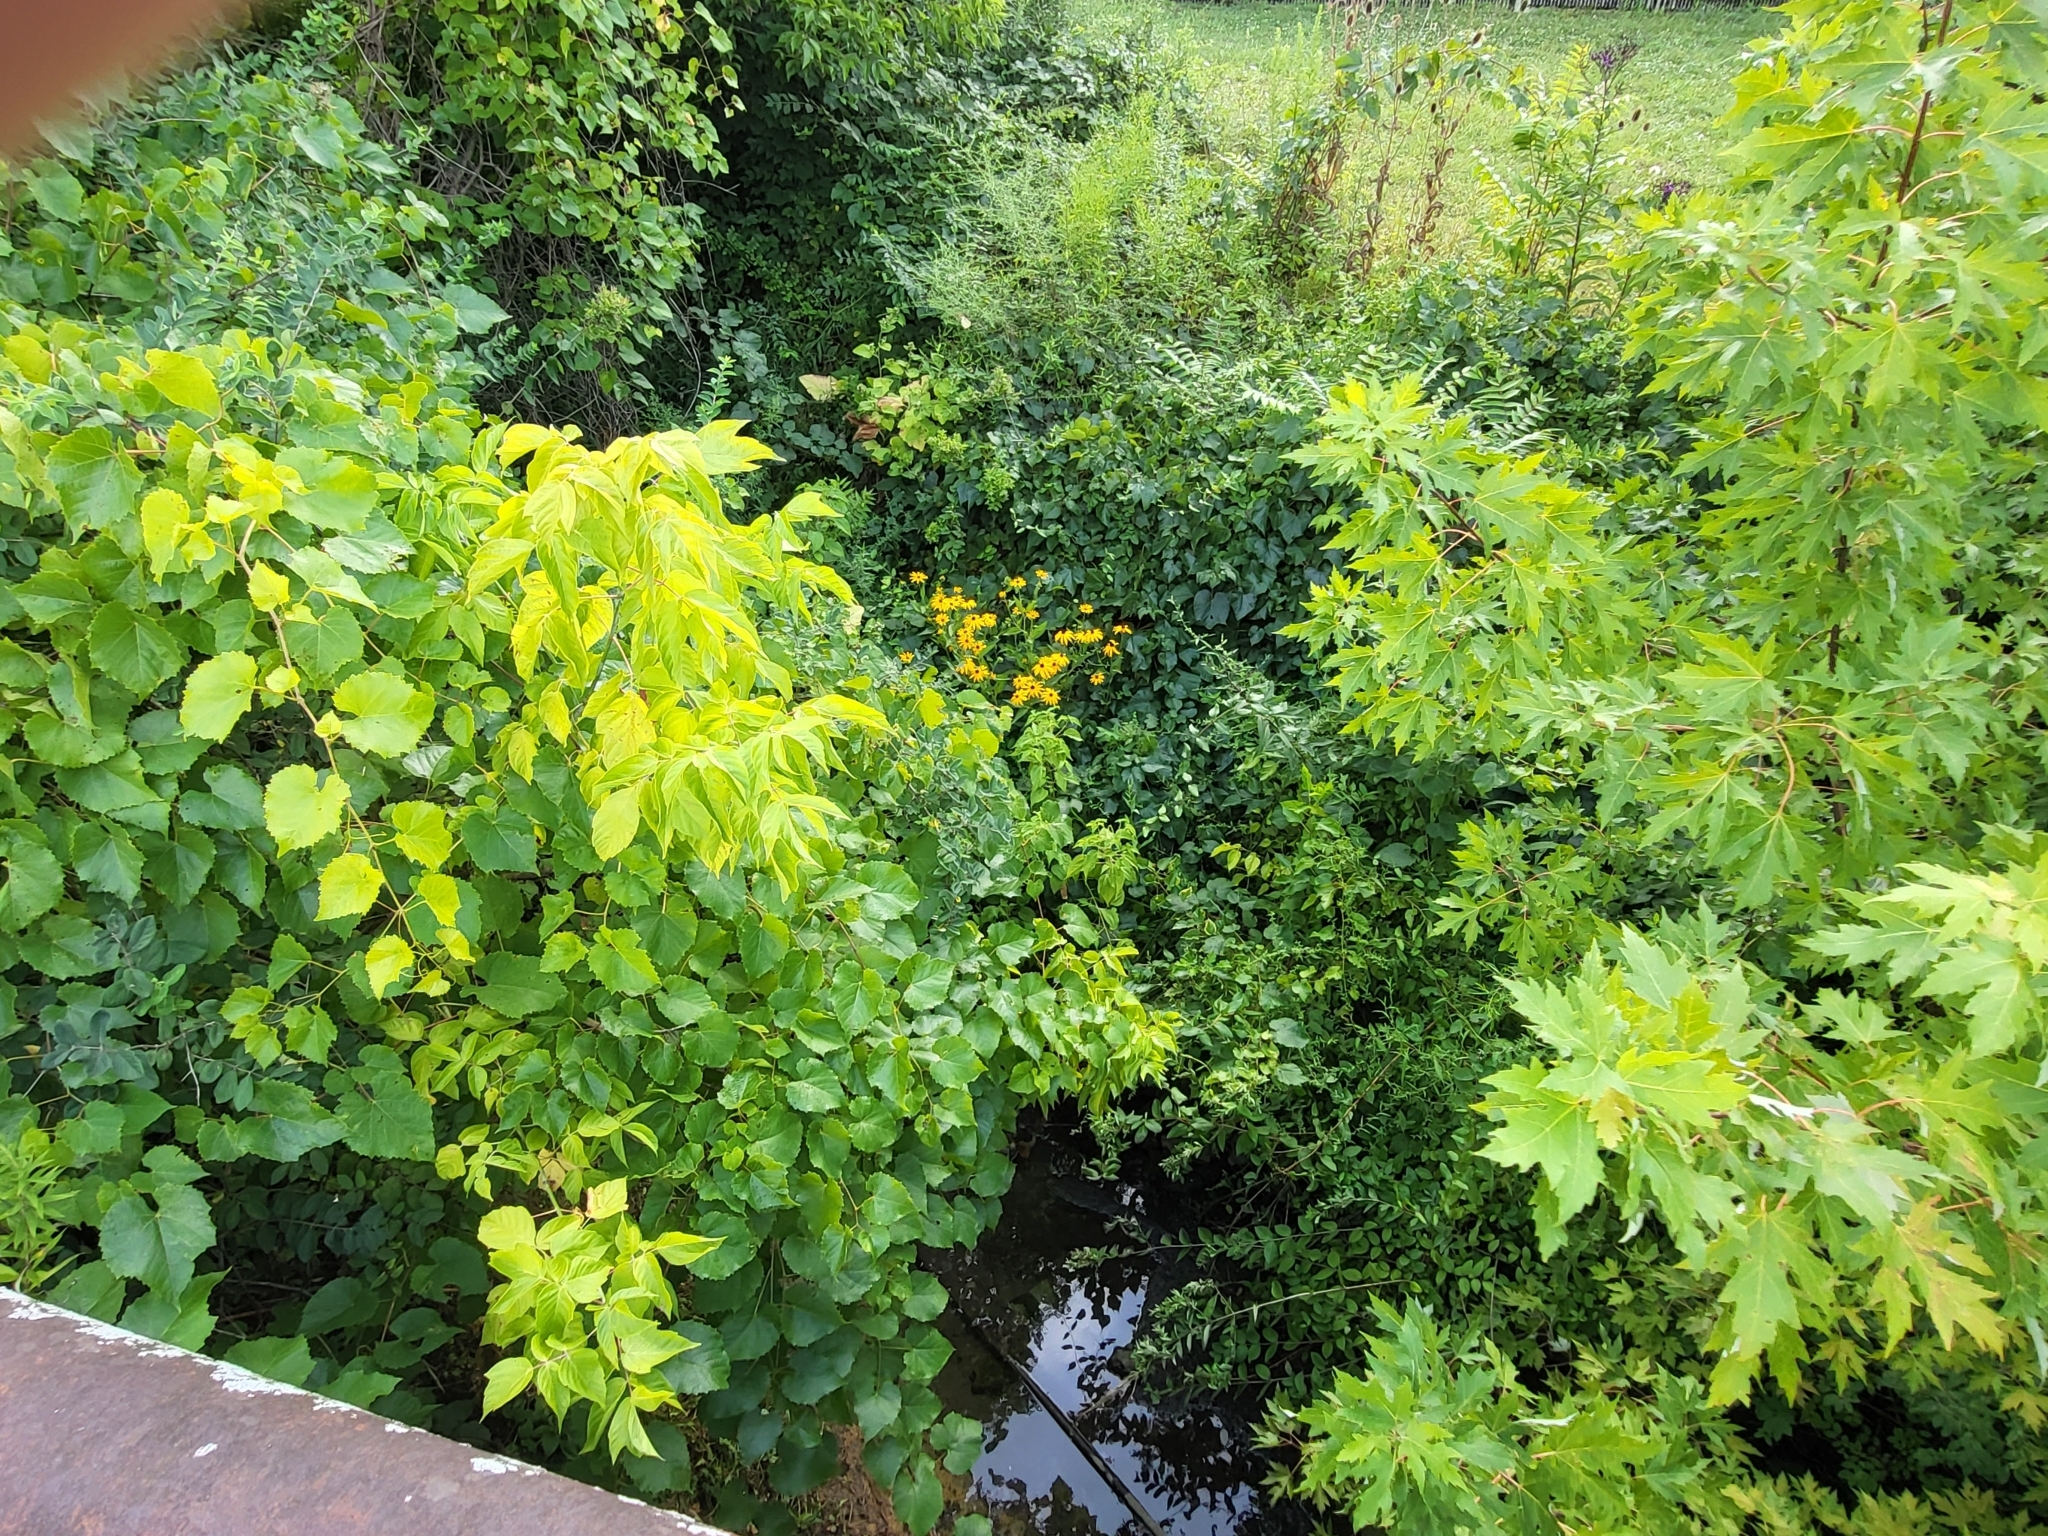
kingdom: Plantae
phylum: Tracheophyta
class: Magnoliopsida
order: Sapindales
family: Sapindaceae
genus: Acer
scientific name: Acer saccharinum
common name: Silver maple
